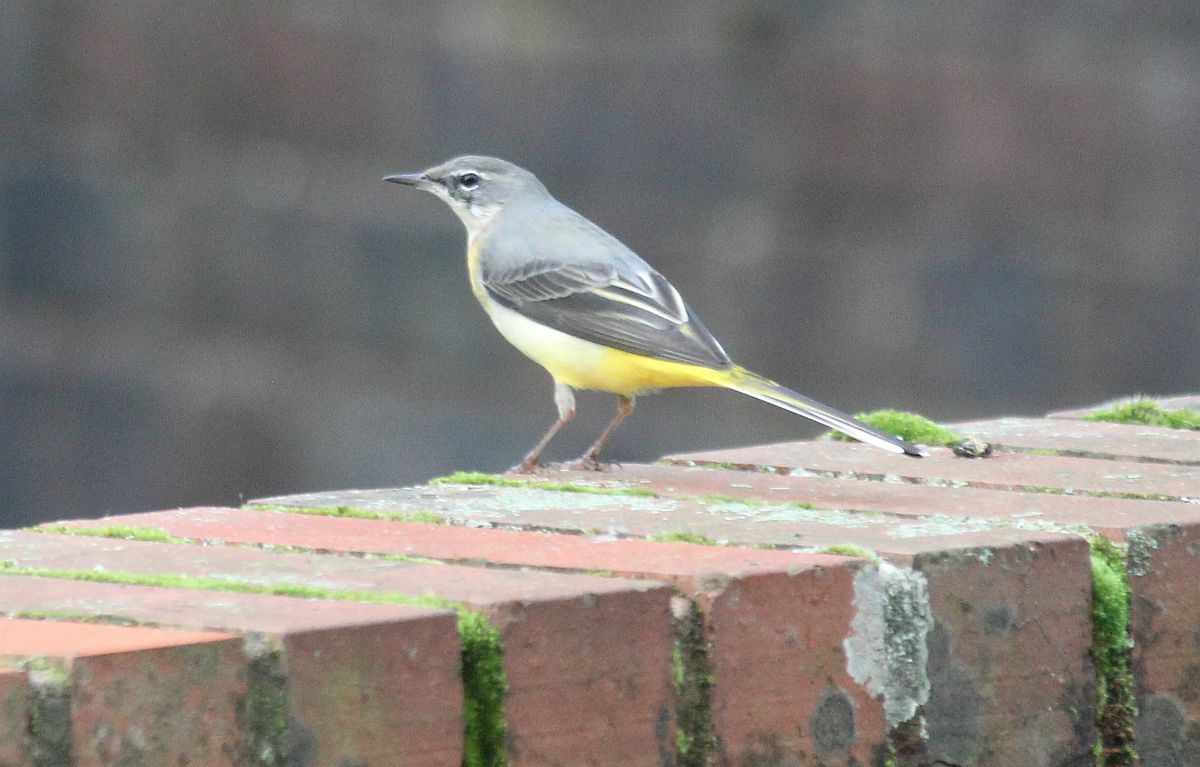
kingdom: Animalia
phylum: Chordata
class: Aves
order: Passeriformes
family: Motacillidae
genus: Motacilla
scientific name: Motacilla cinerea
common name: Grey wagtail
